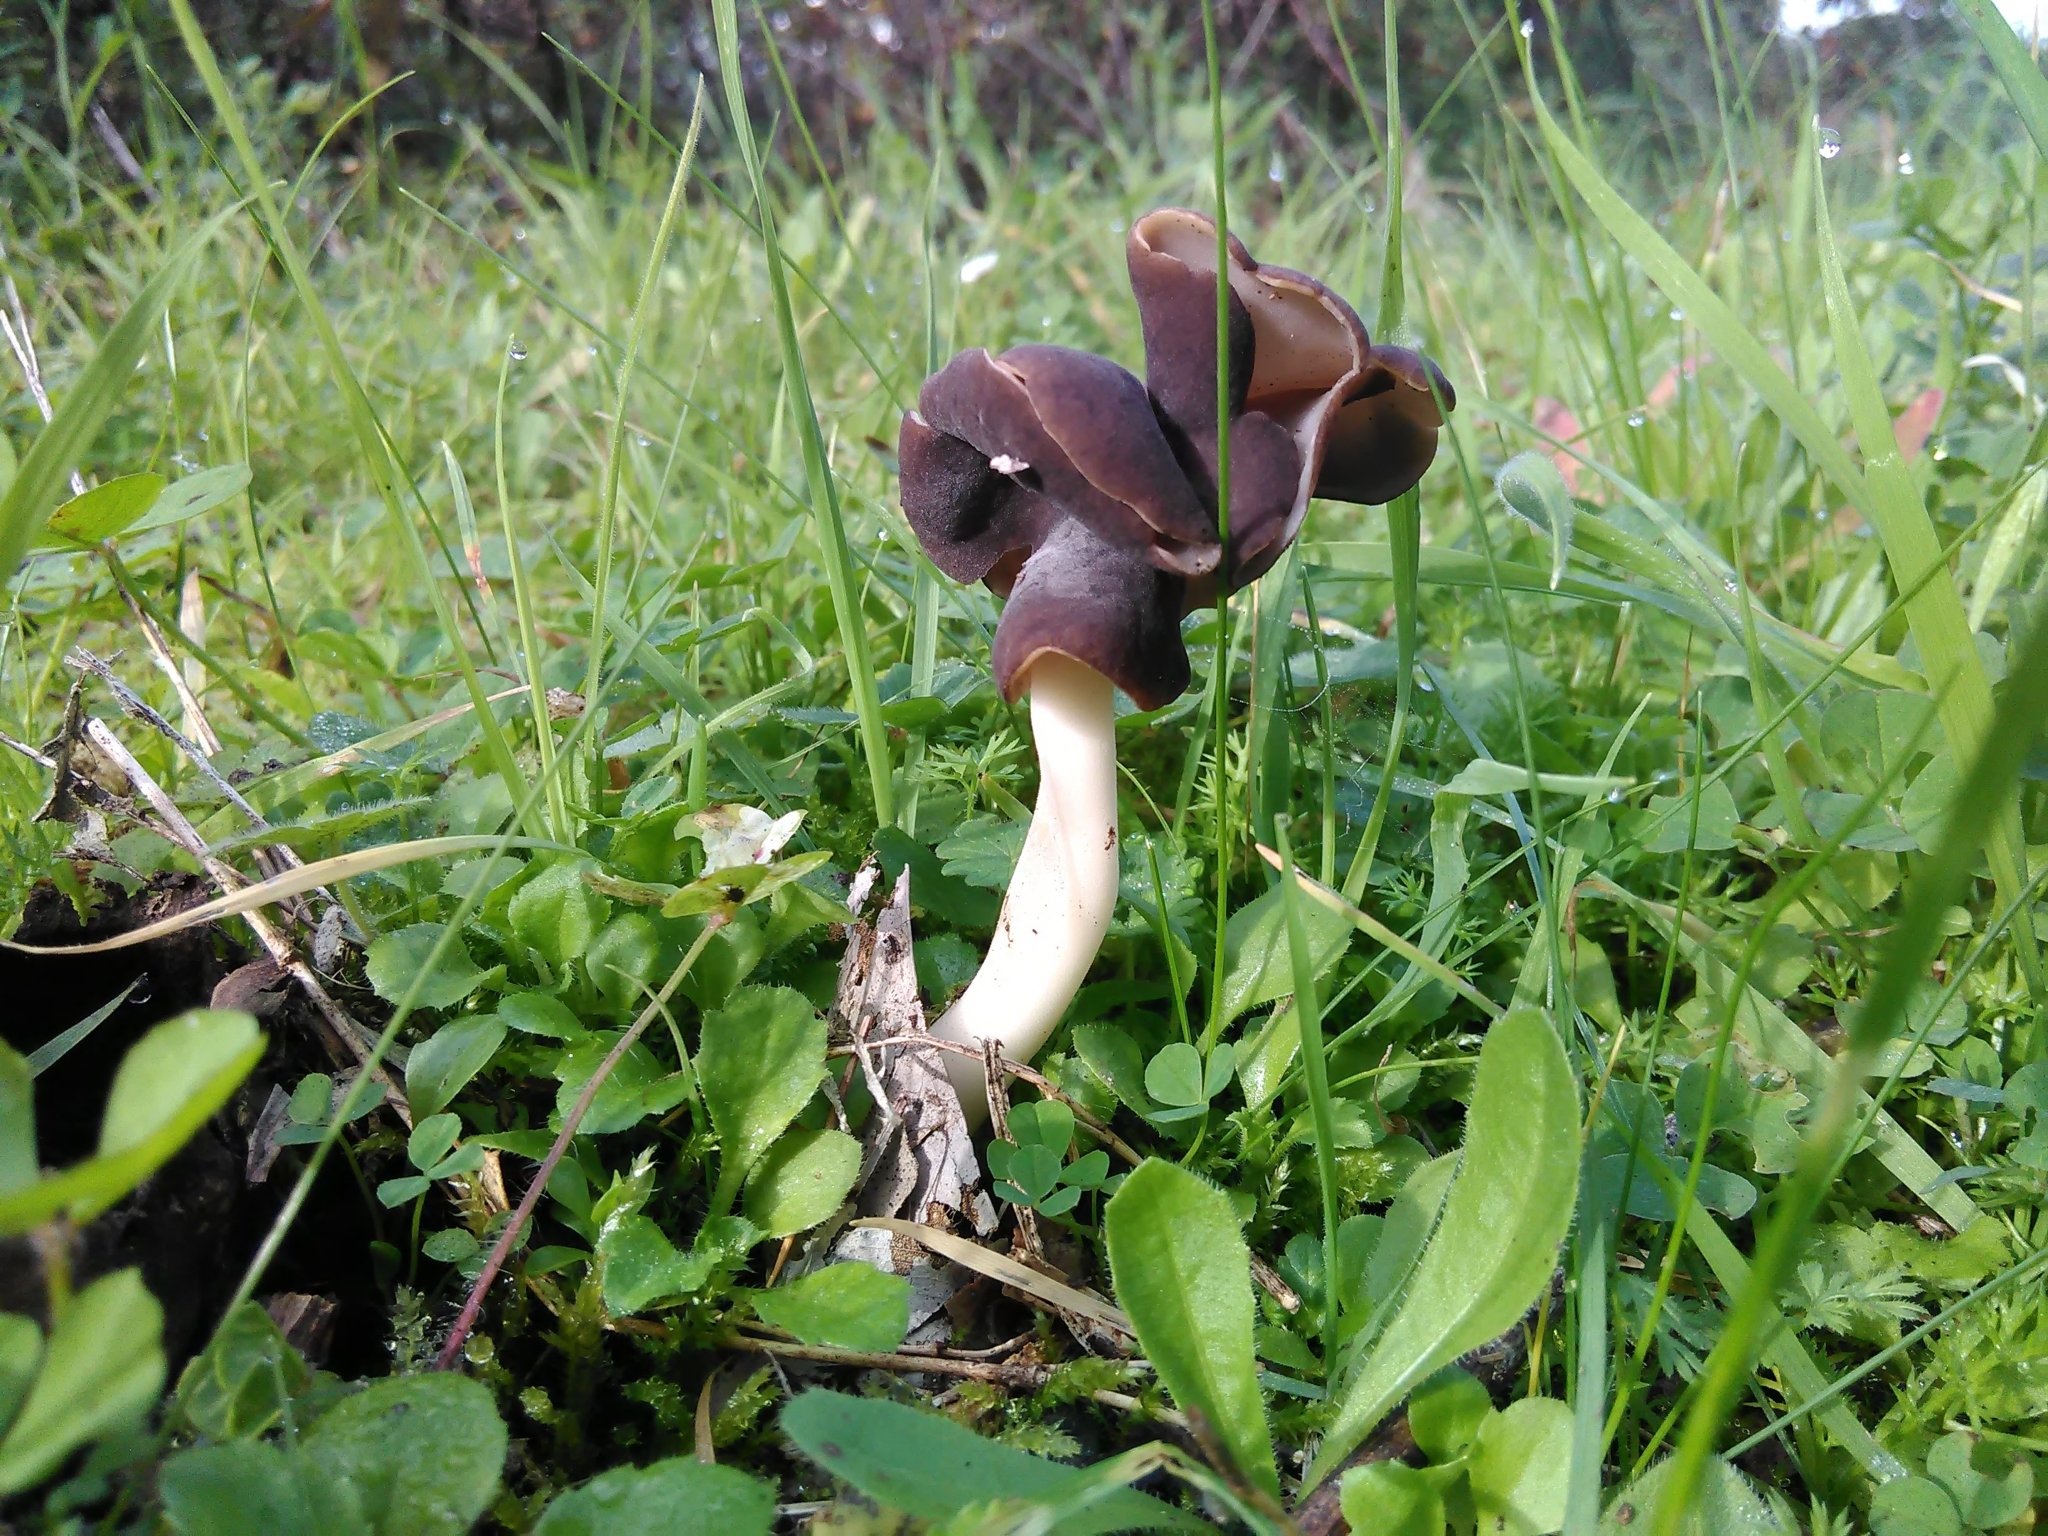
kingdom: Fungi
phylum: Ascomycota
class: Pezizomycetes
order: Pezizales
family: Helvellaceae
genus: Helvella
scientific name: Helvella panormitana
